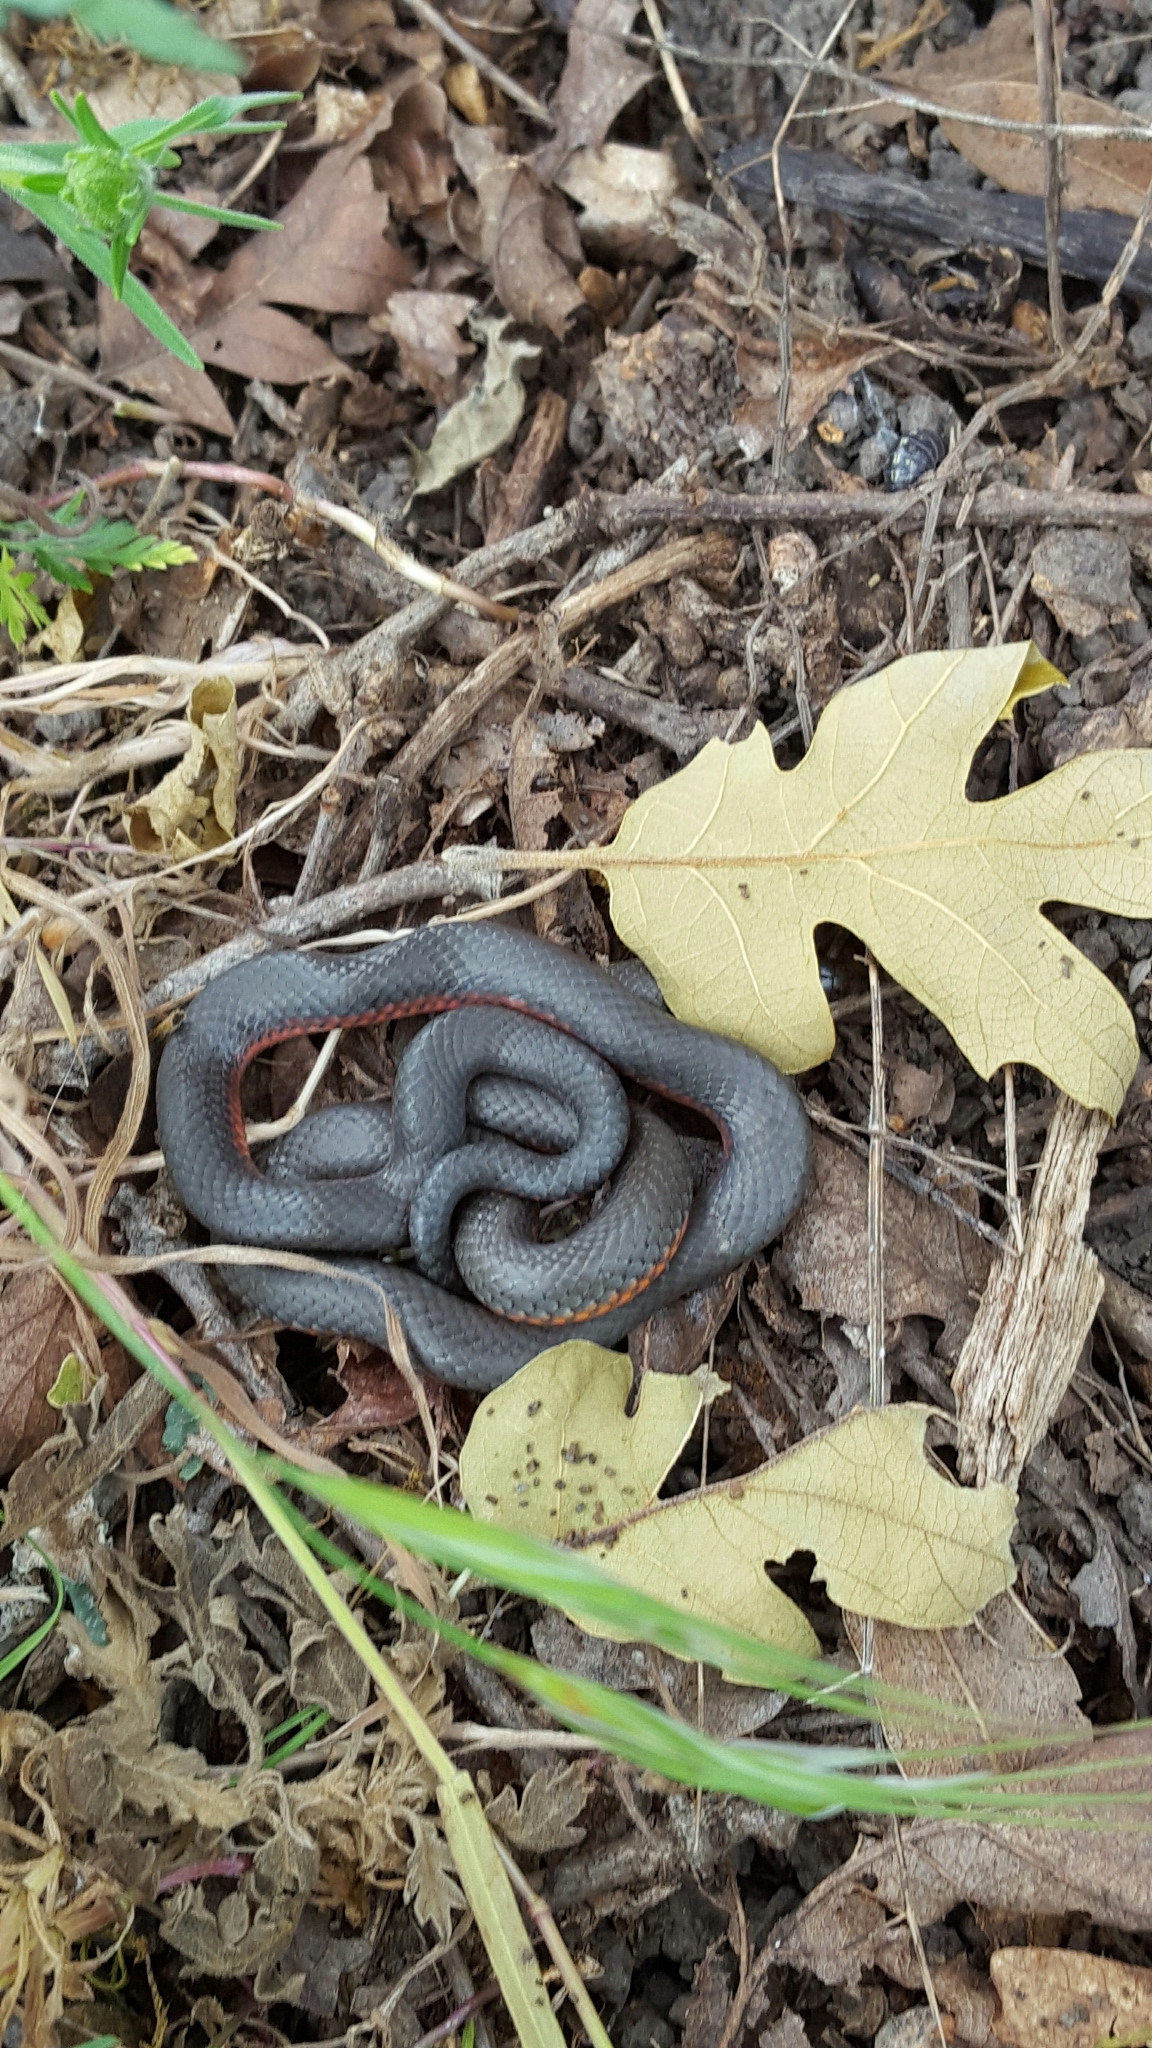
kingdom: Animalia
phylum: Chordata
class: Squamata
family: Colubridae
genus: Diadophis
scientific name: Diadophis punctatus
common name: Ringneck snake
